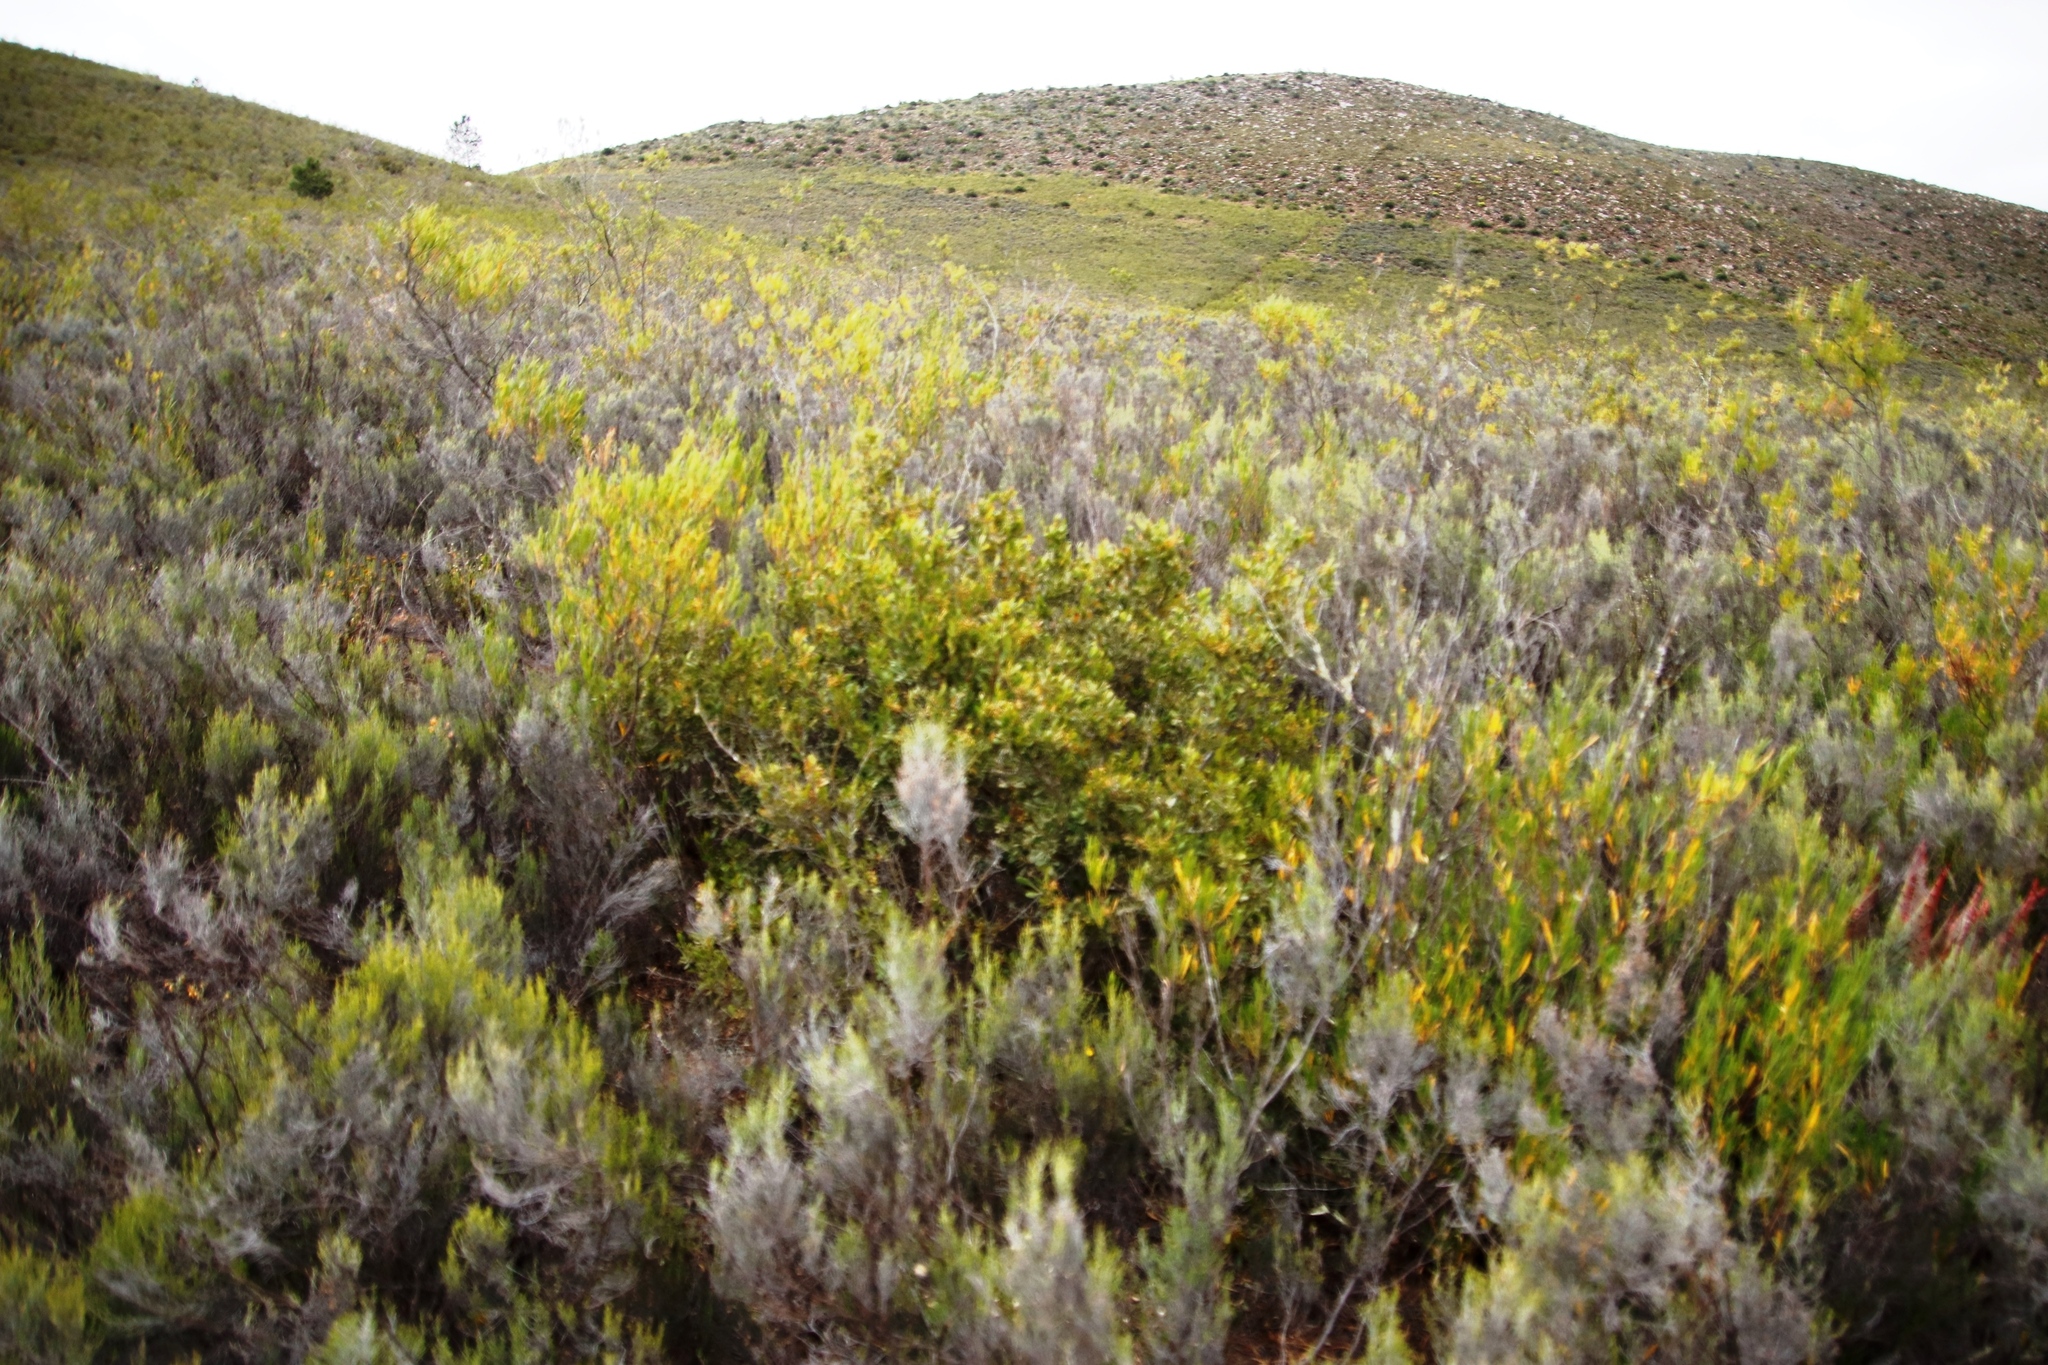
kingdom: Plantae
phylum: Tracheophyta
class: Magnoliopsida
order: Sapindales
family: Anacardiaceae
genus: Searsia
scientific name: Searsia pallens
